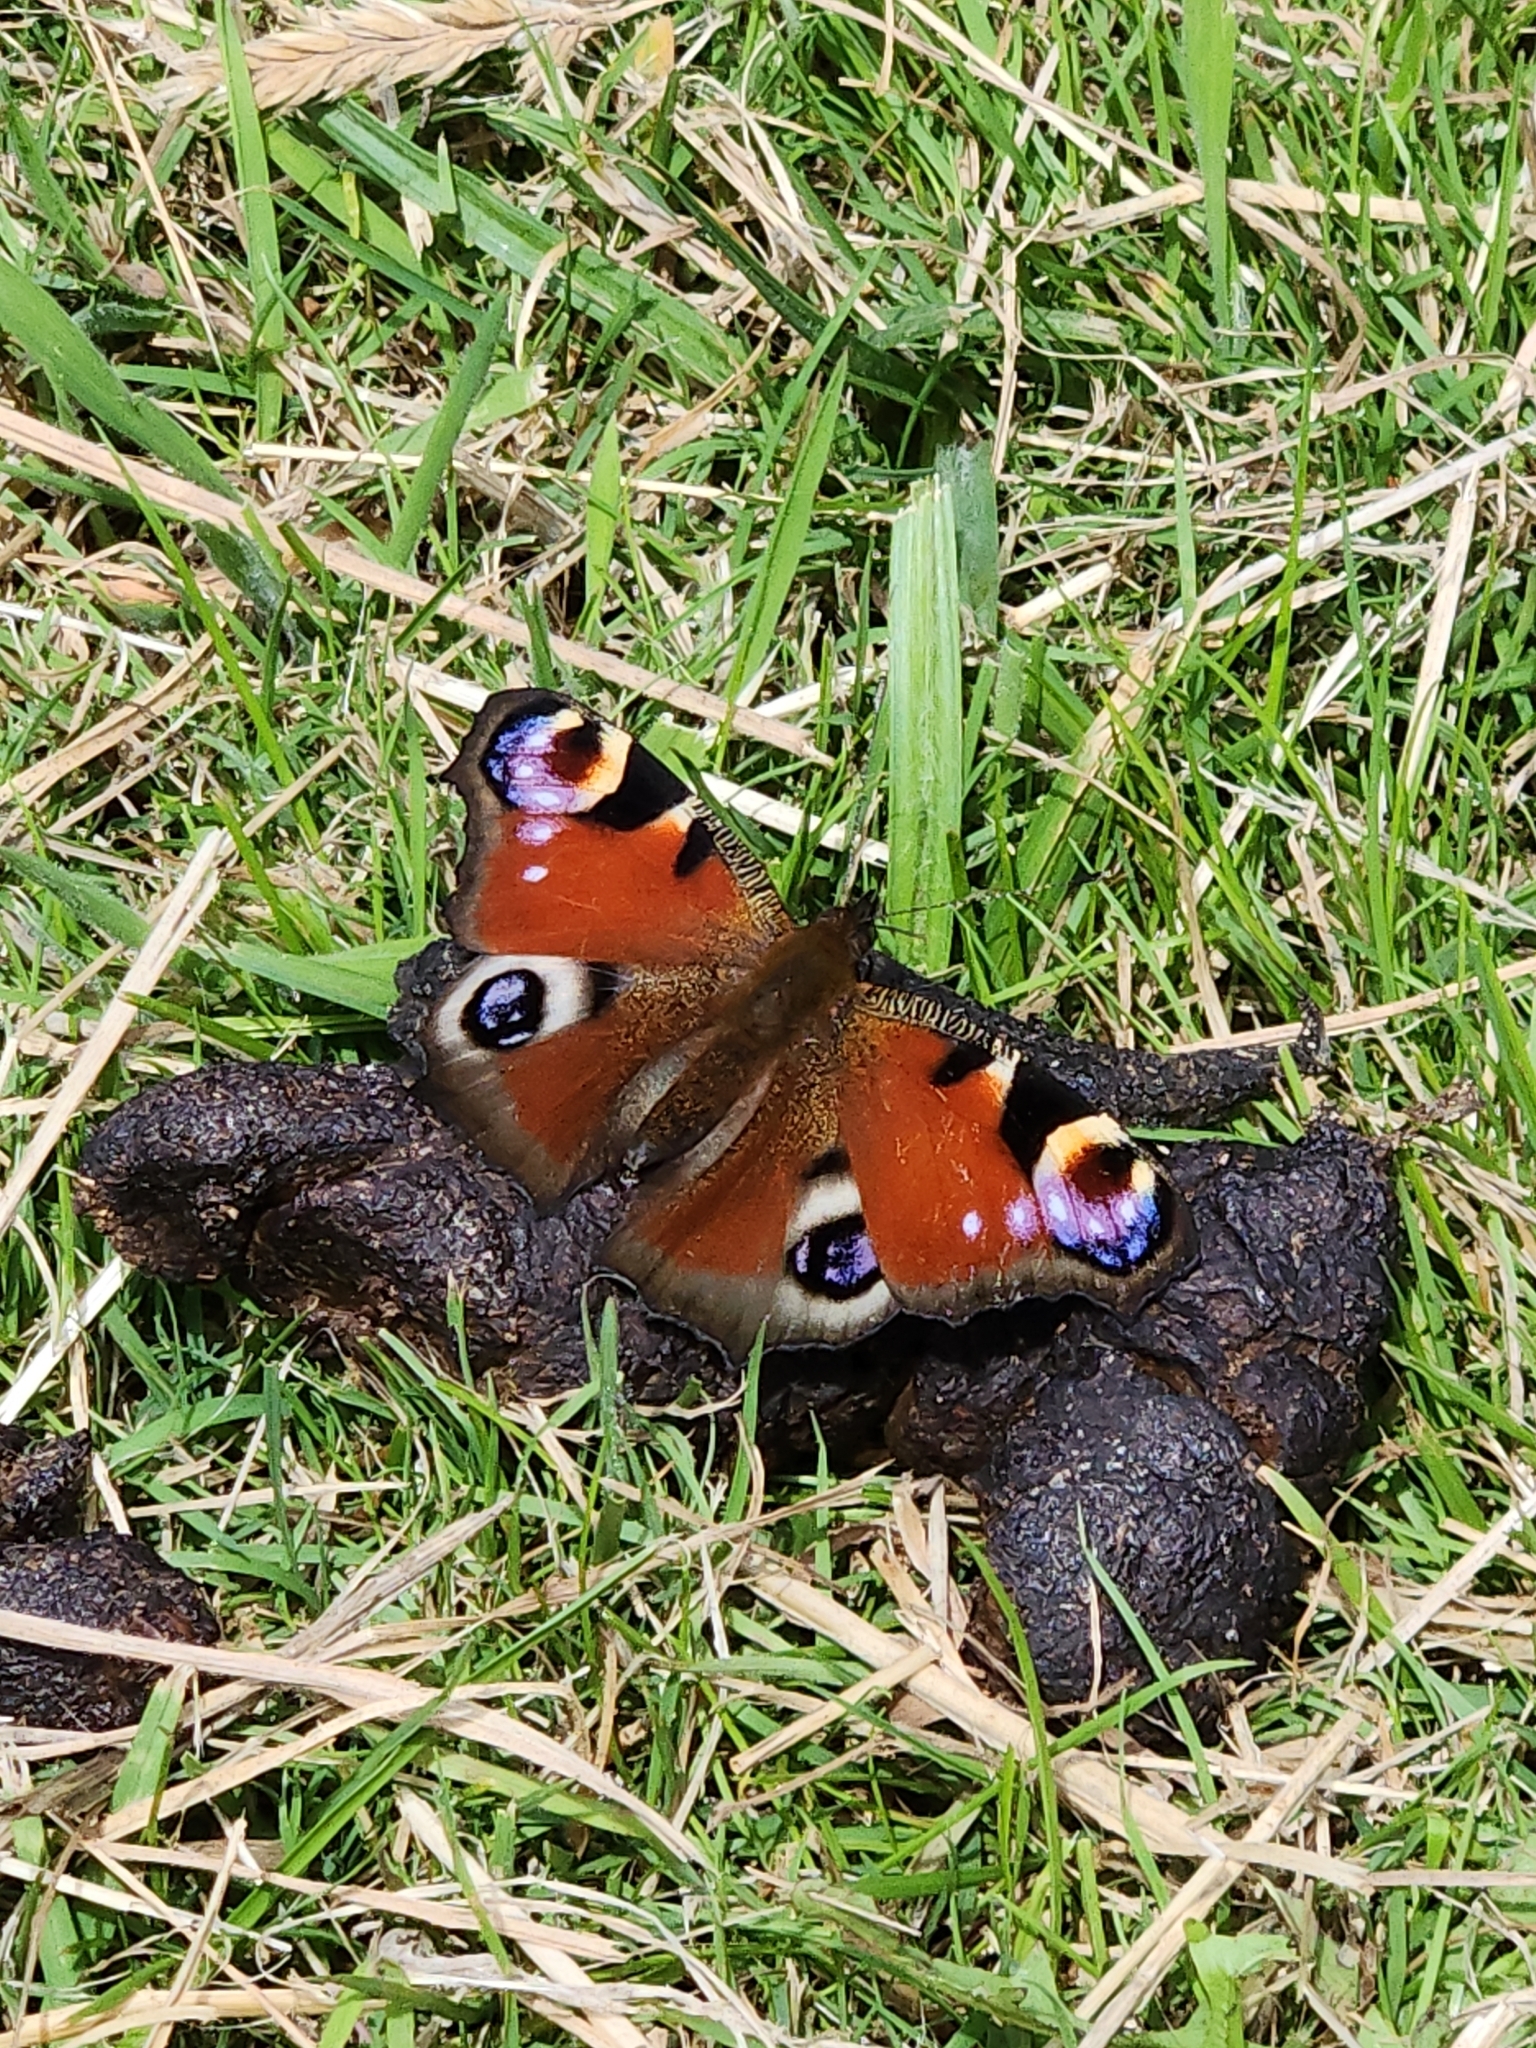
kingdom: Animalia
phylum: Arthropoda
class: Insecta
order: Lepidoptera
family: Nymphalidae
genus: Aglais
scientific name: Aglais io
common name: Peacock
